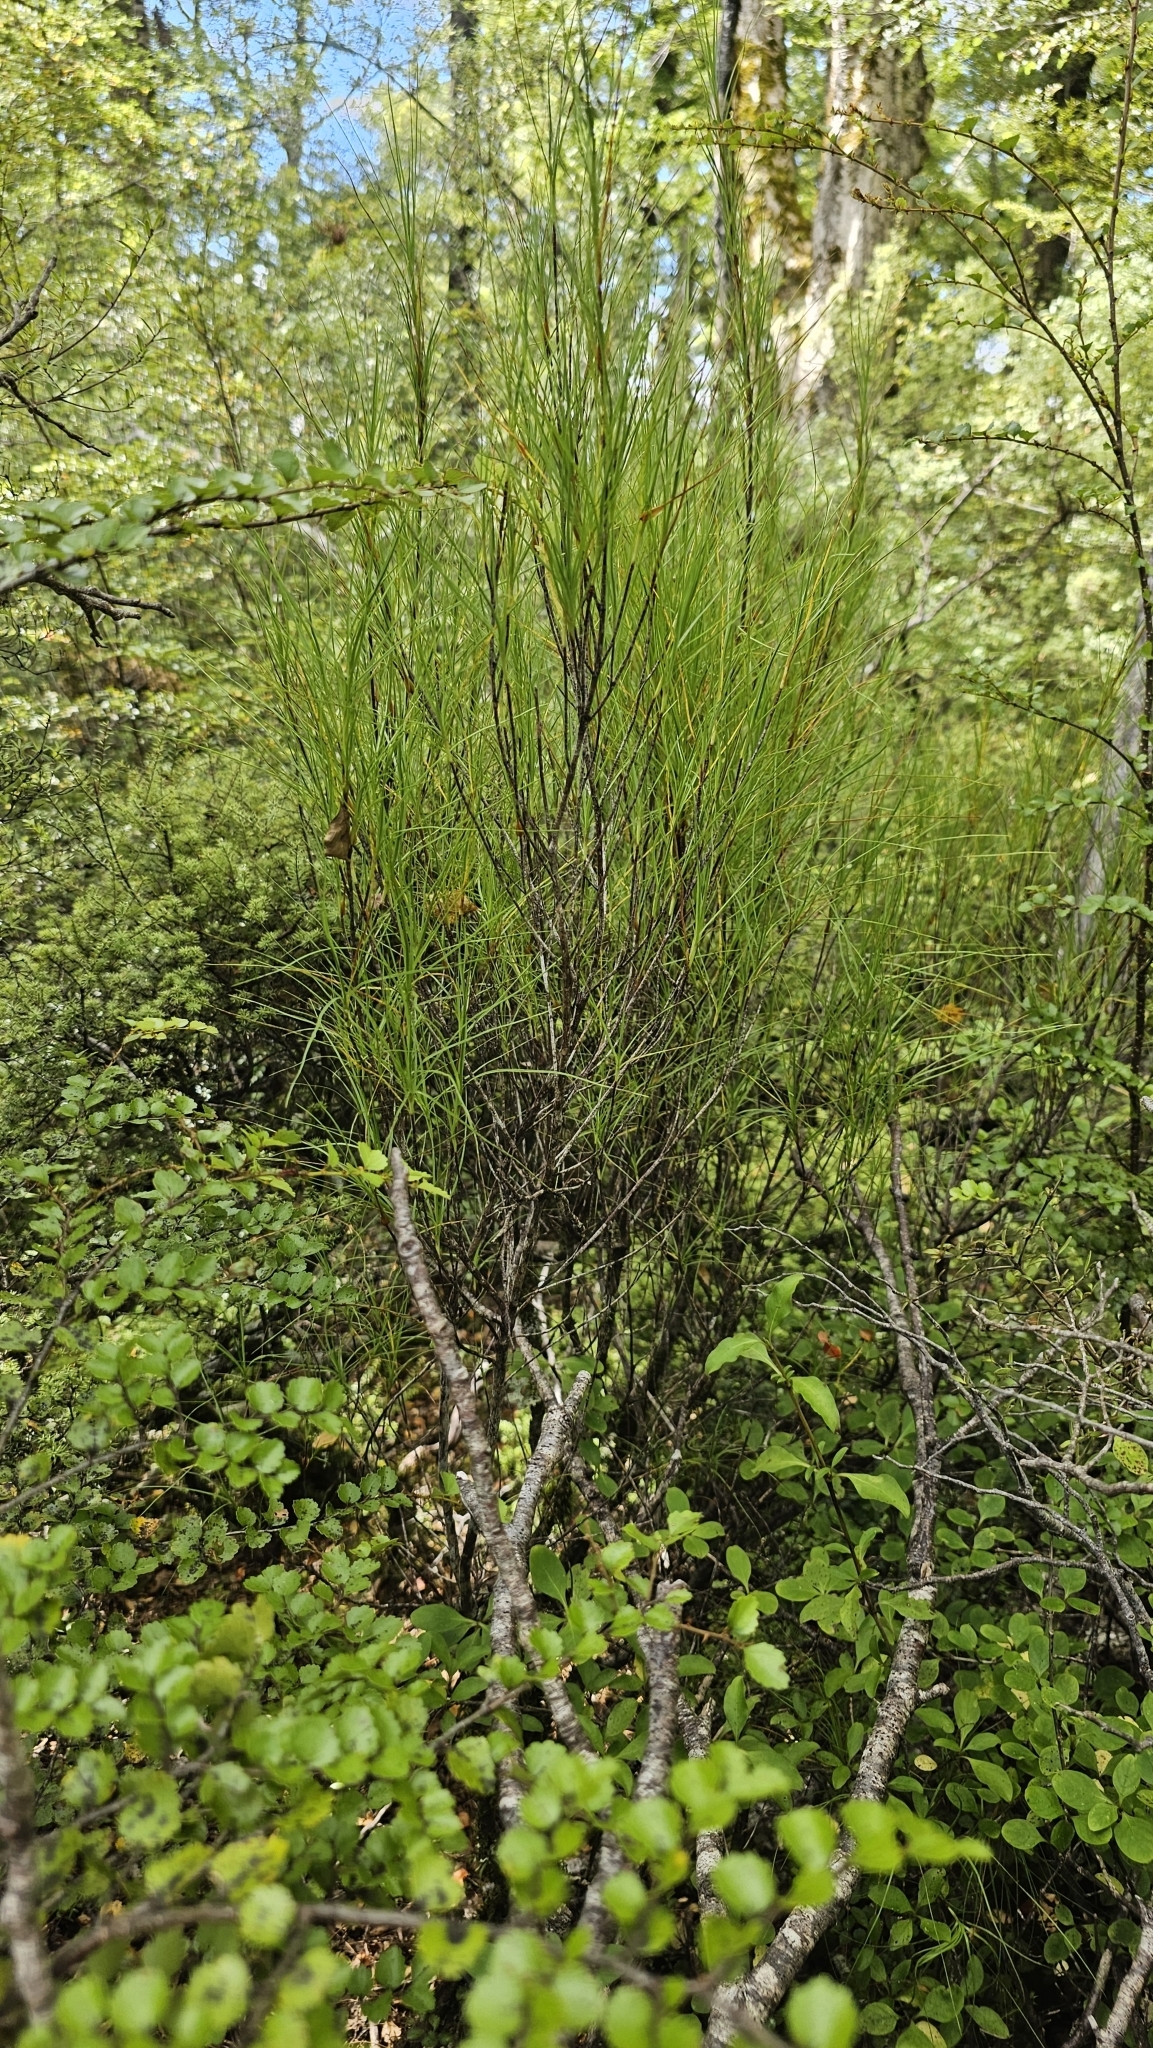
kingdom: Plantae
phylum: Tracheophyta
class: Magnoliopsida
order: Ericales
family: Ericaceae
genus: Dracophyllum
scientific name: Dracophyllum filifolium
